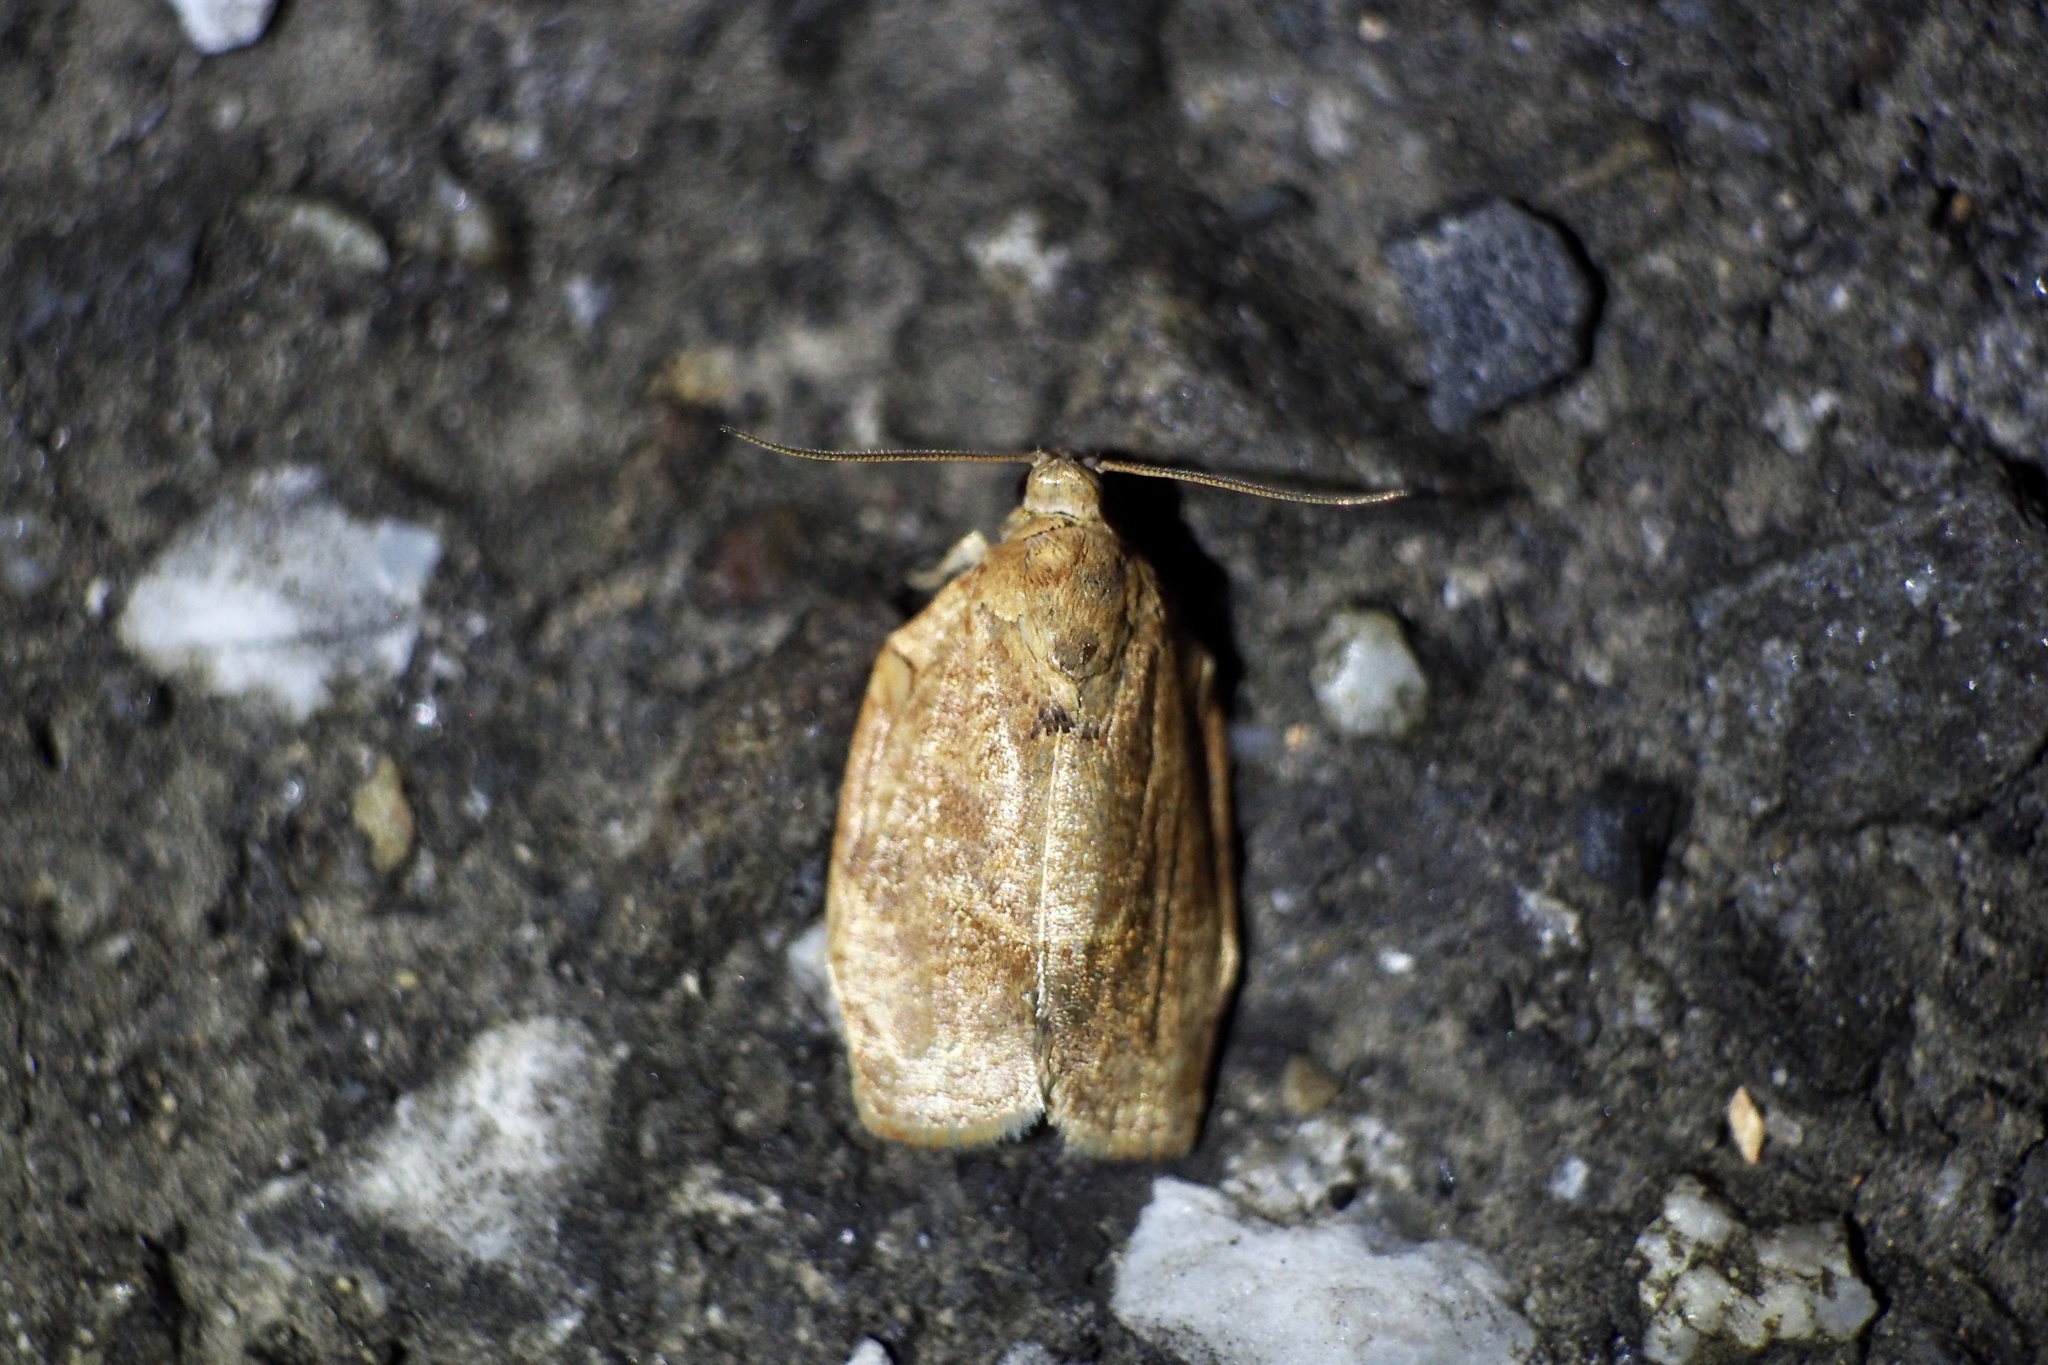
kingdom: Animalia
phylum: Arthropoda
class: Insecta
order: Lepidoptera
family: Tortricidae
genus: Choristoneura
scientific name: Choristoneura longicellanus
